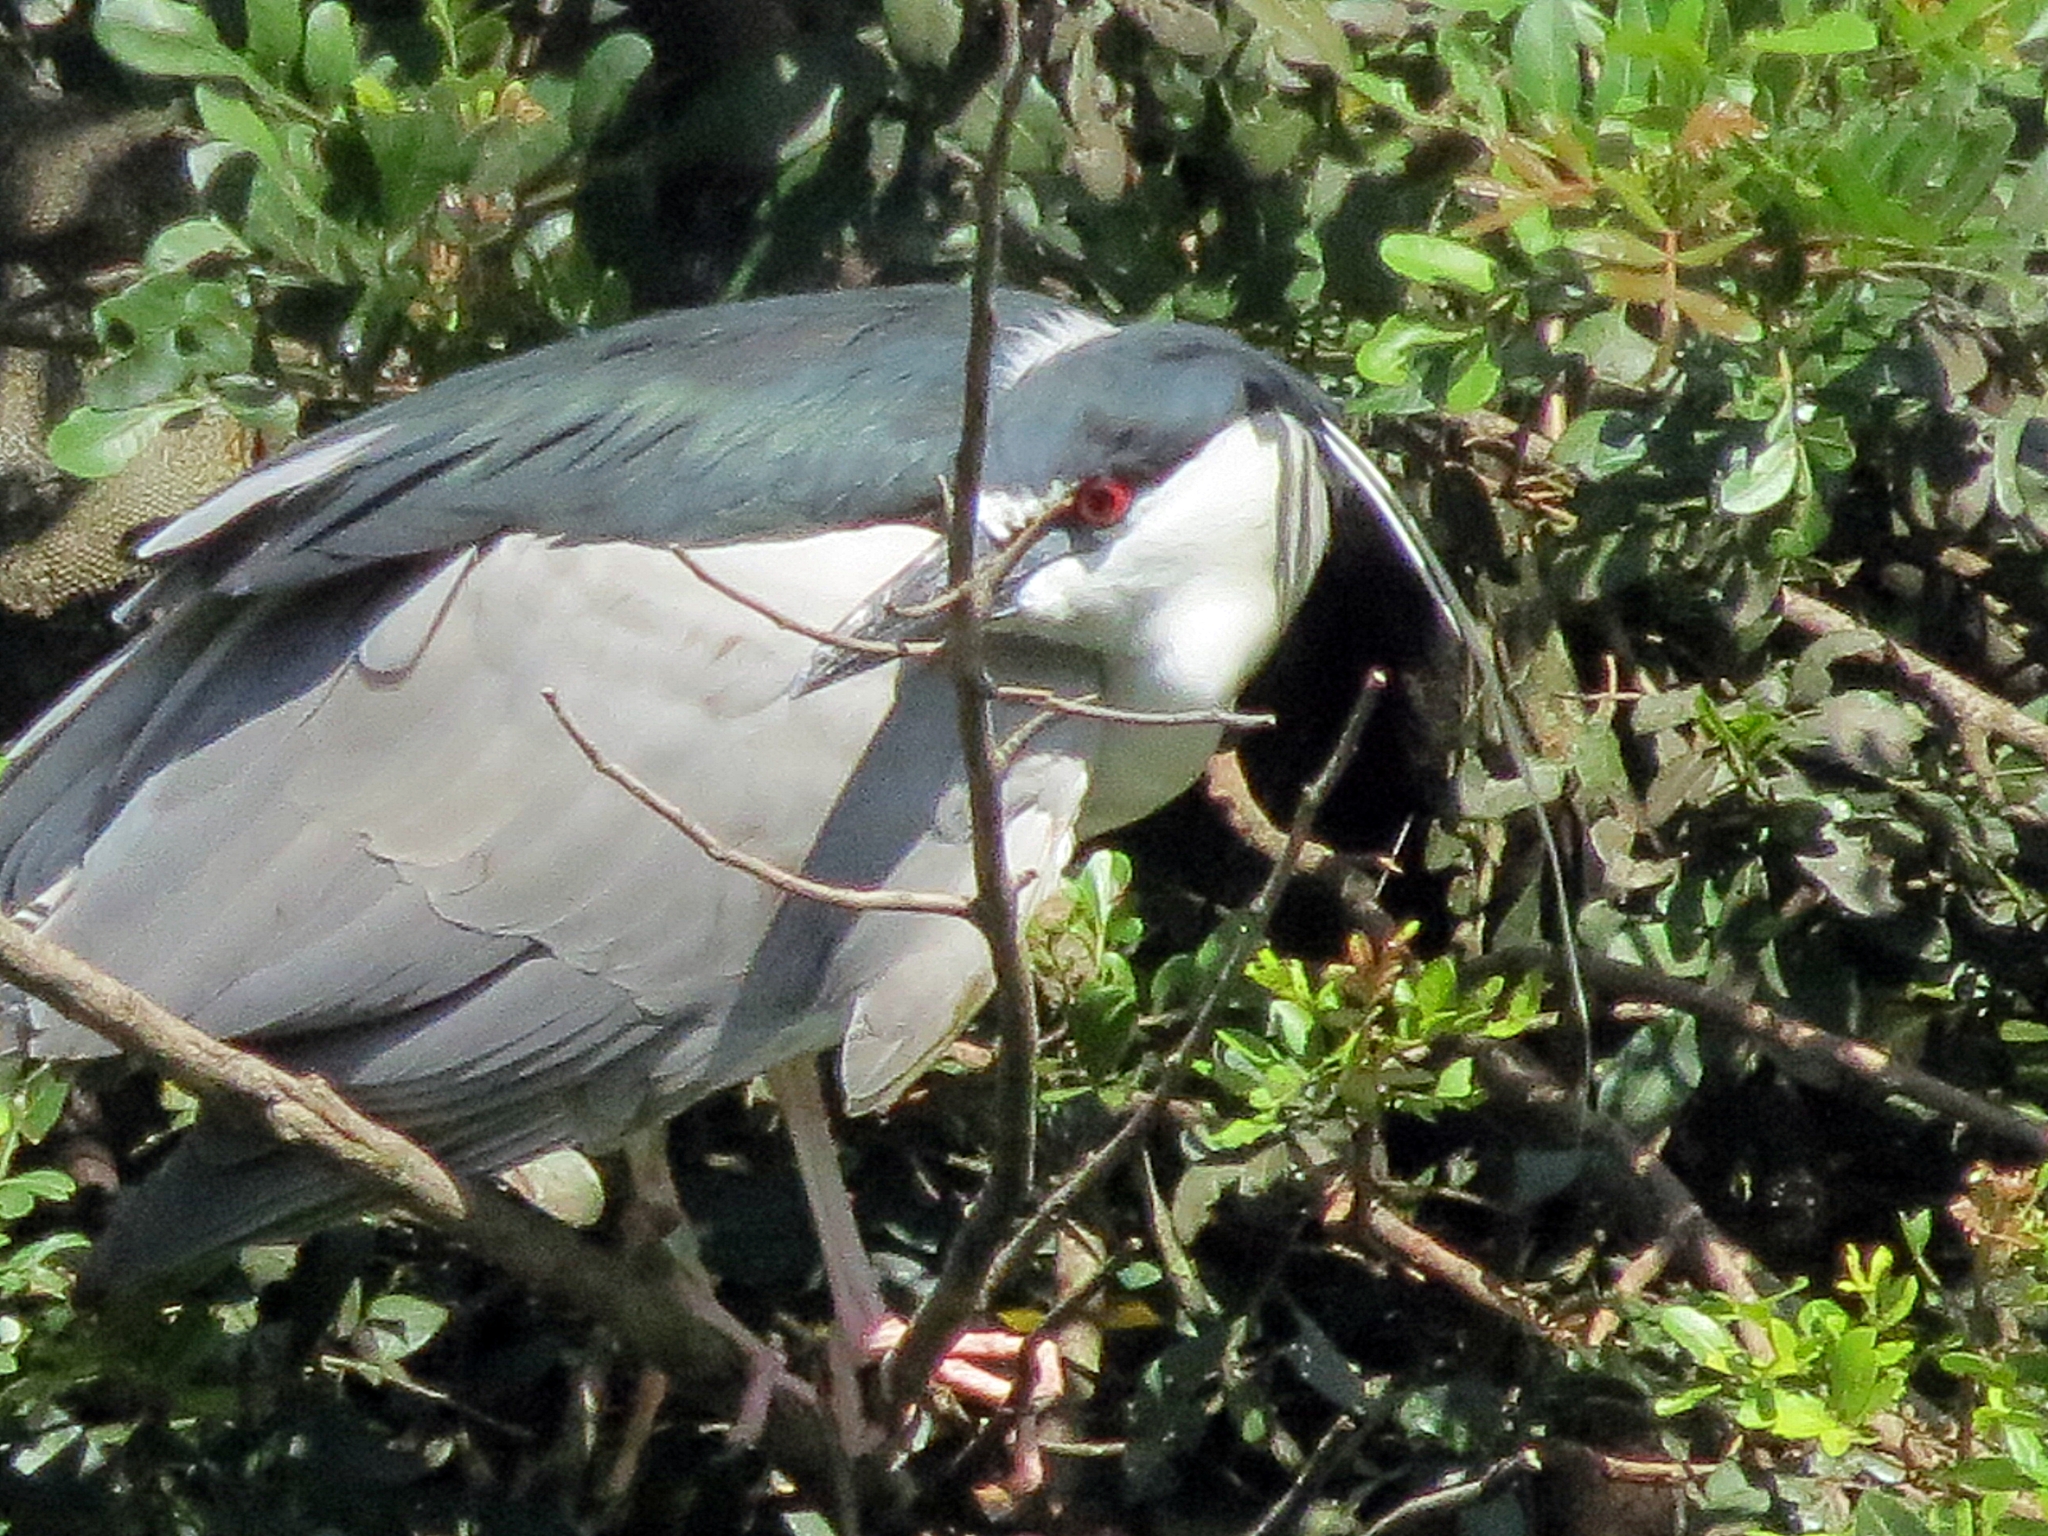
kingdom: Animalia
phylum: Chordata
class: Aves
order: Pelecaniformes
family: Ardeidae
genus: Nycticorax
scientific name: Nycticorax nycticorax
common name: Black-crowned night heron
